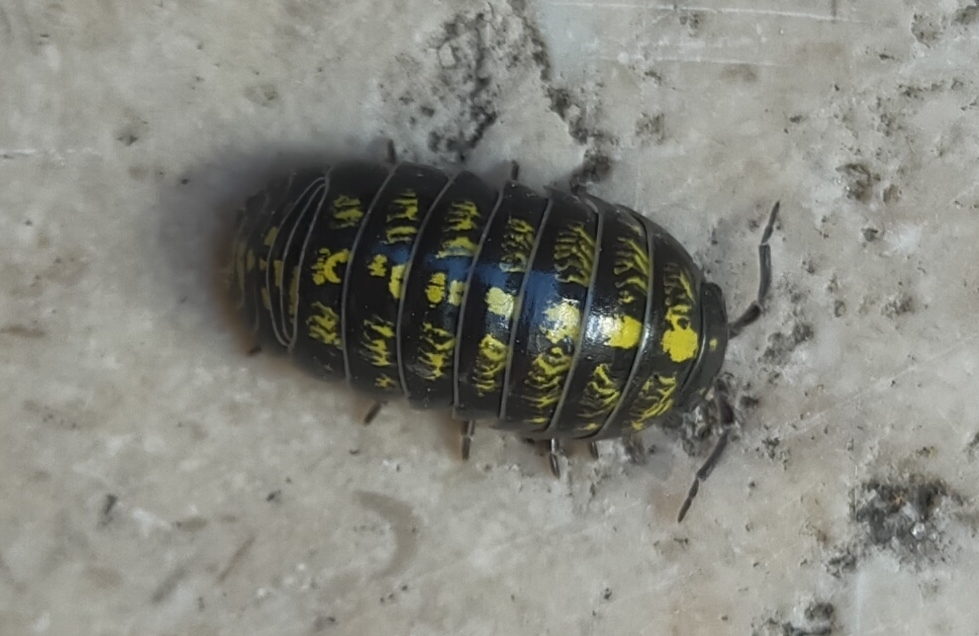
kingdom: Animalia
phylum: Arthropoda
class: Malacostraca
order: Isopoda
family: Armadillidiidae
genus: Armadillidium
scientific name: Armadillidium
